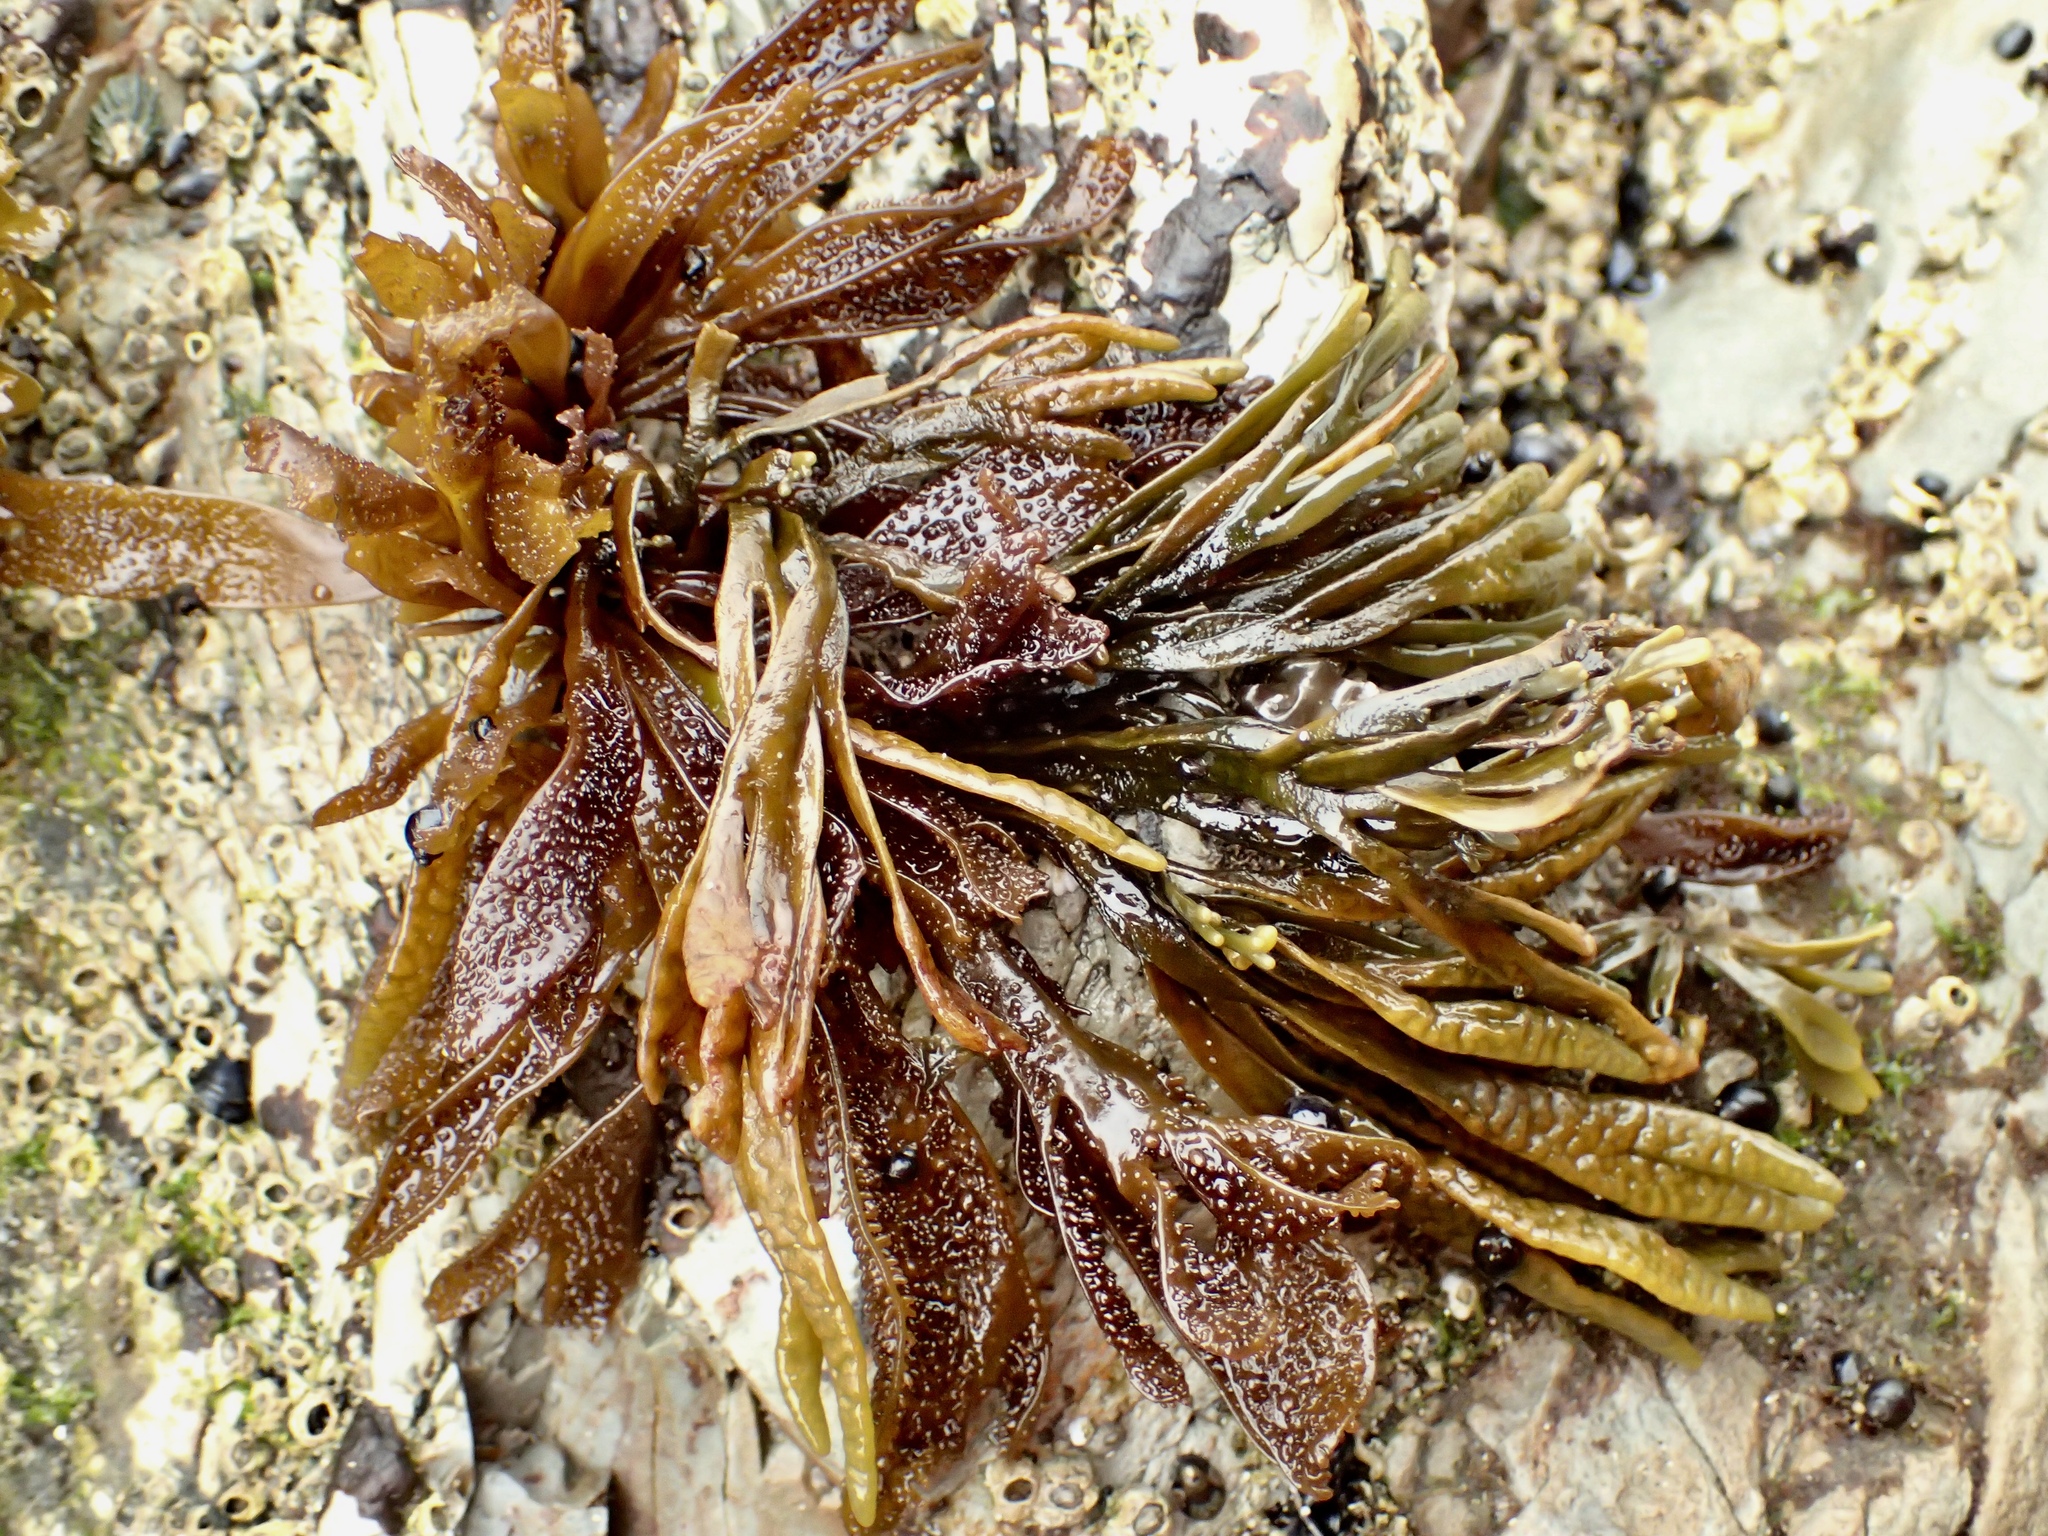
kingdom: Plantae
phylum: Rhodophyta
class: Florideophyceae
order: Gigartinales
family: Phyllophoraceae
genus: Mastocarpus
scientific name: Mastocarpus papillatus
